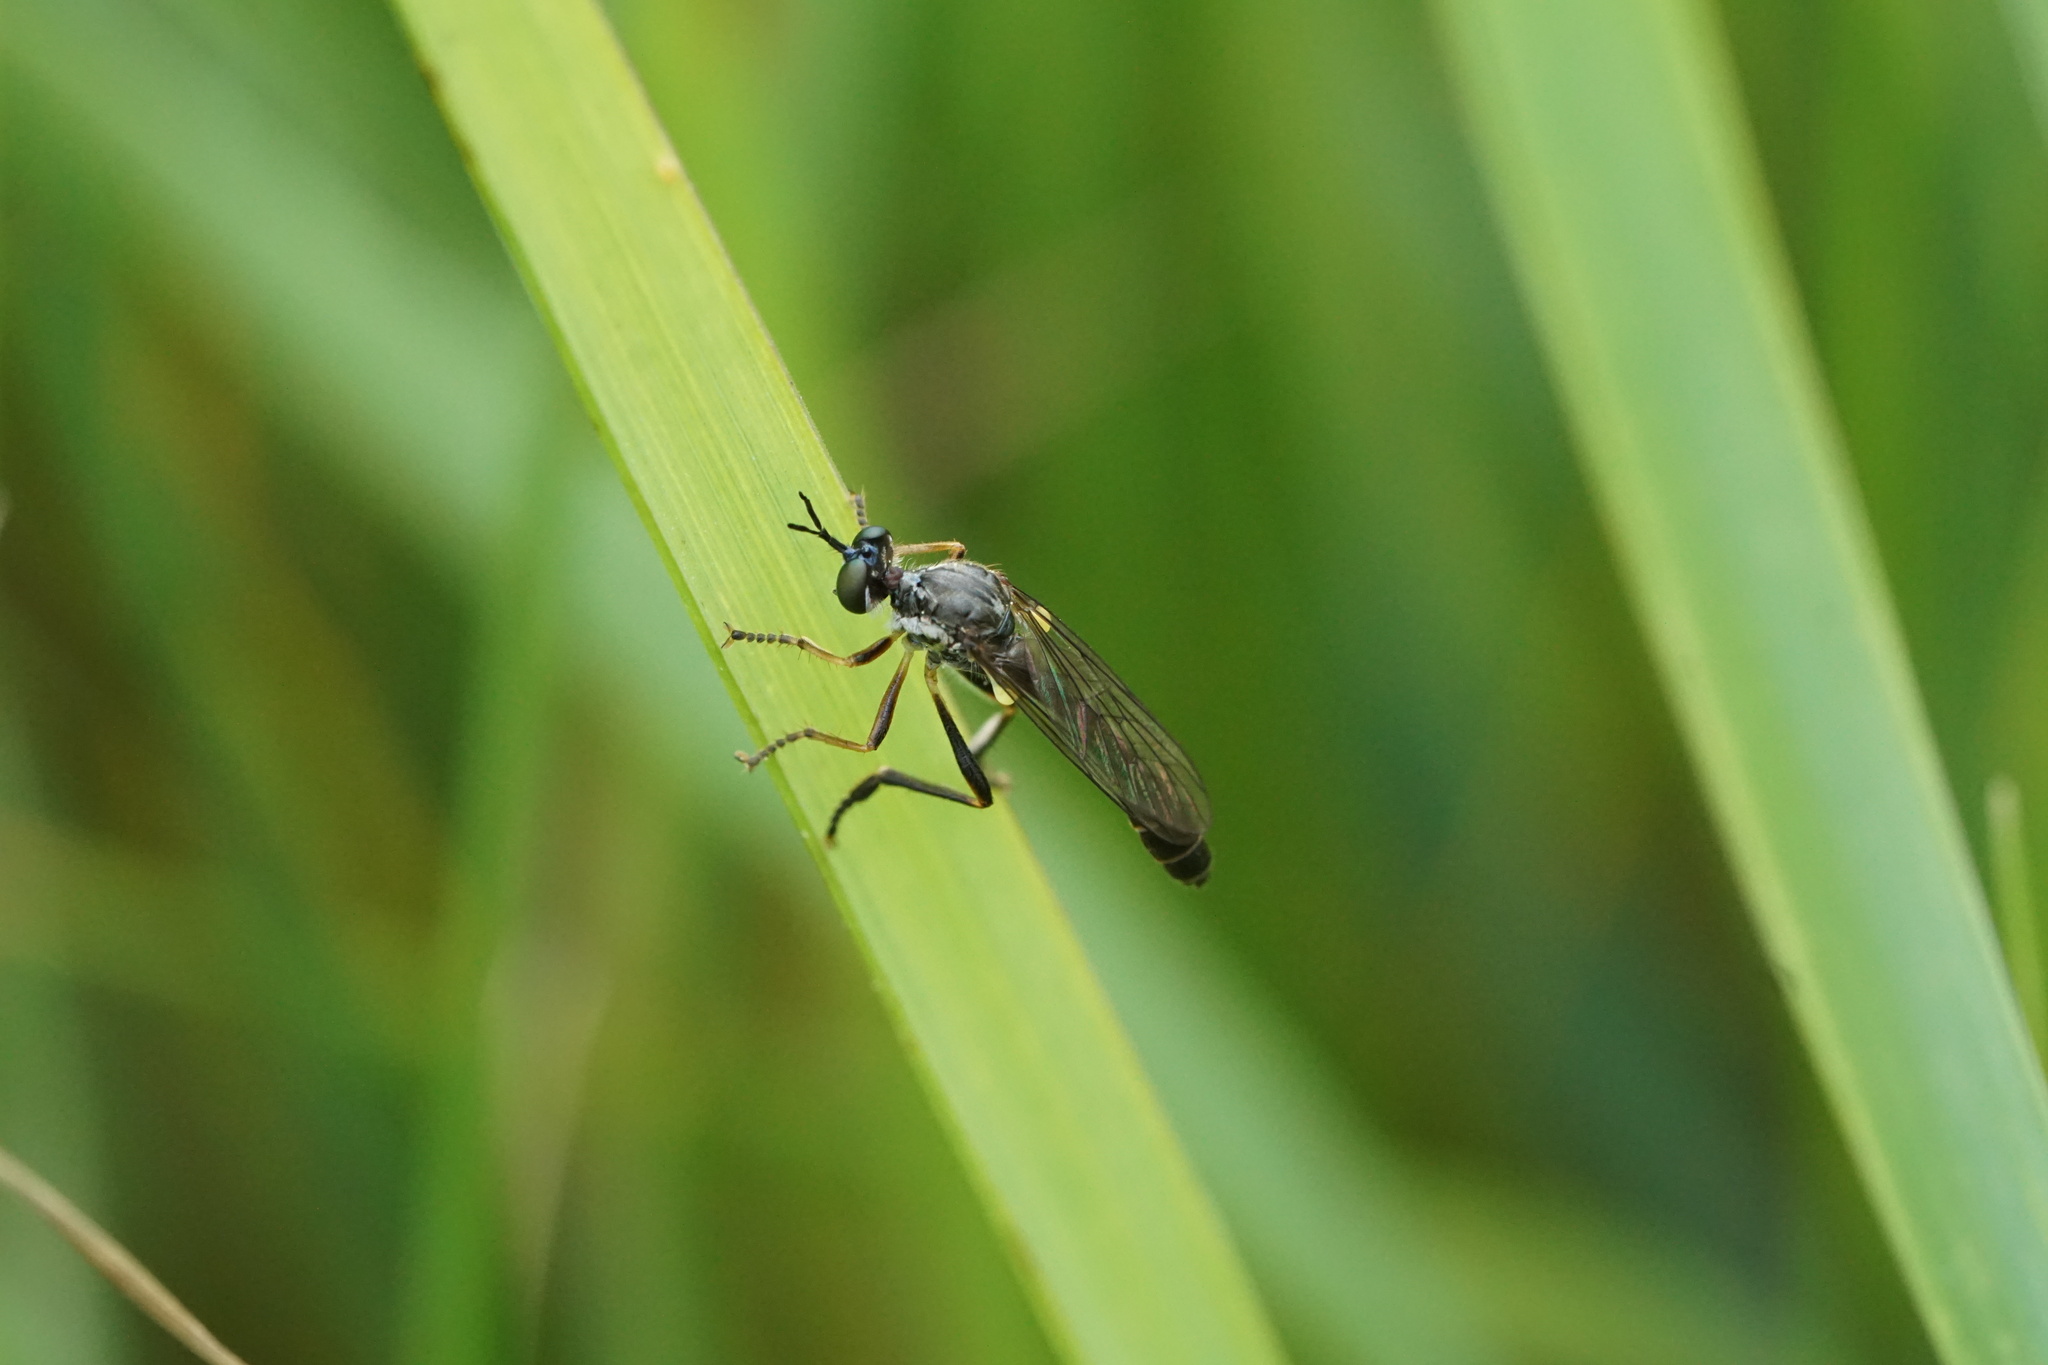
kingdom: Animalia
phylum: Arthropoda
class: Insecta
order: Diptera
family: Asilidae
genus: Dioctria
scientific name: Dioctria hyalipennis
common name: Stripe-legged robberfly
